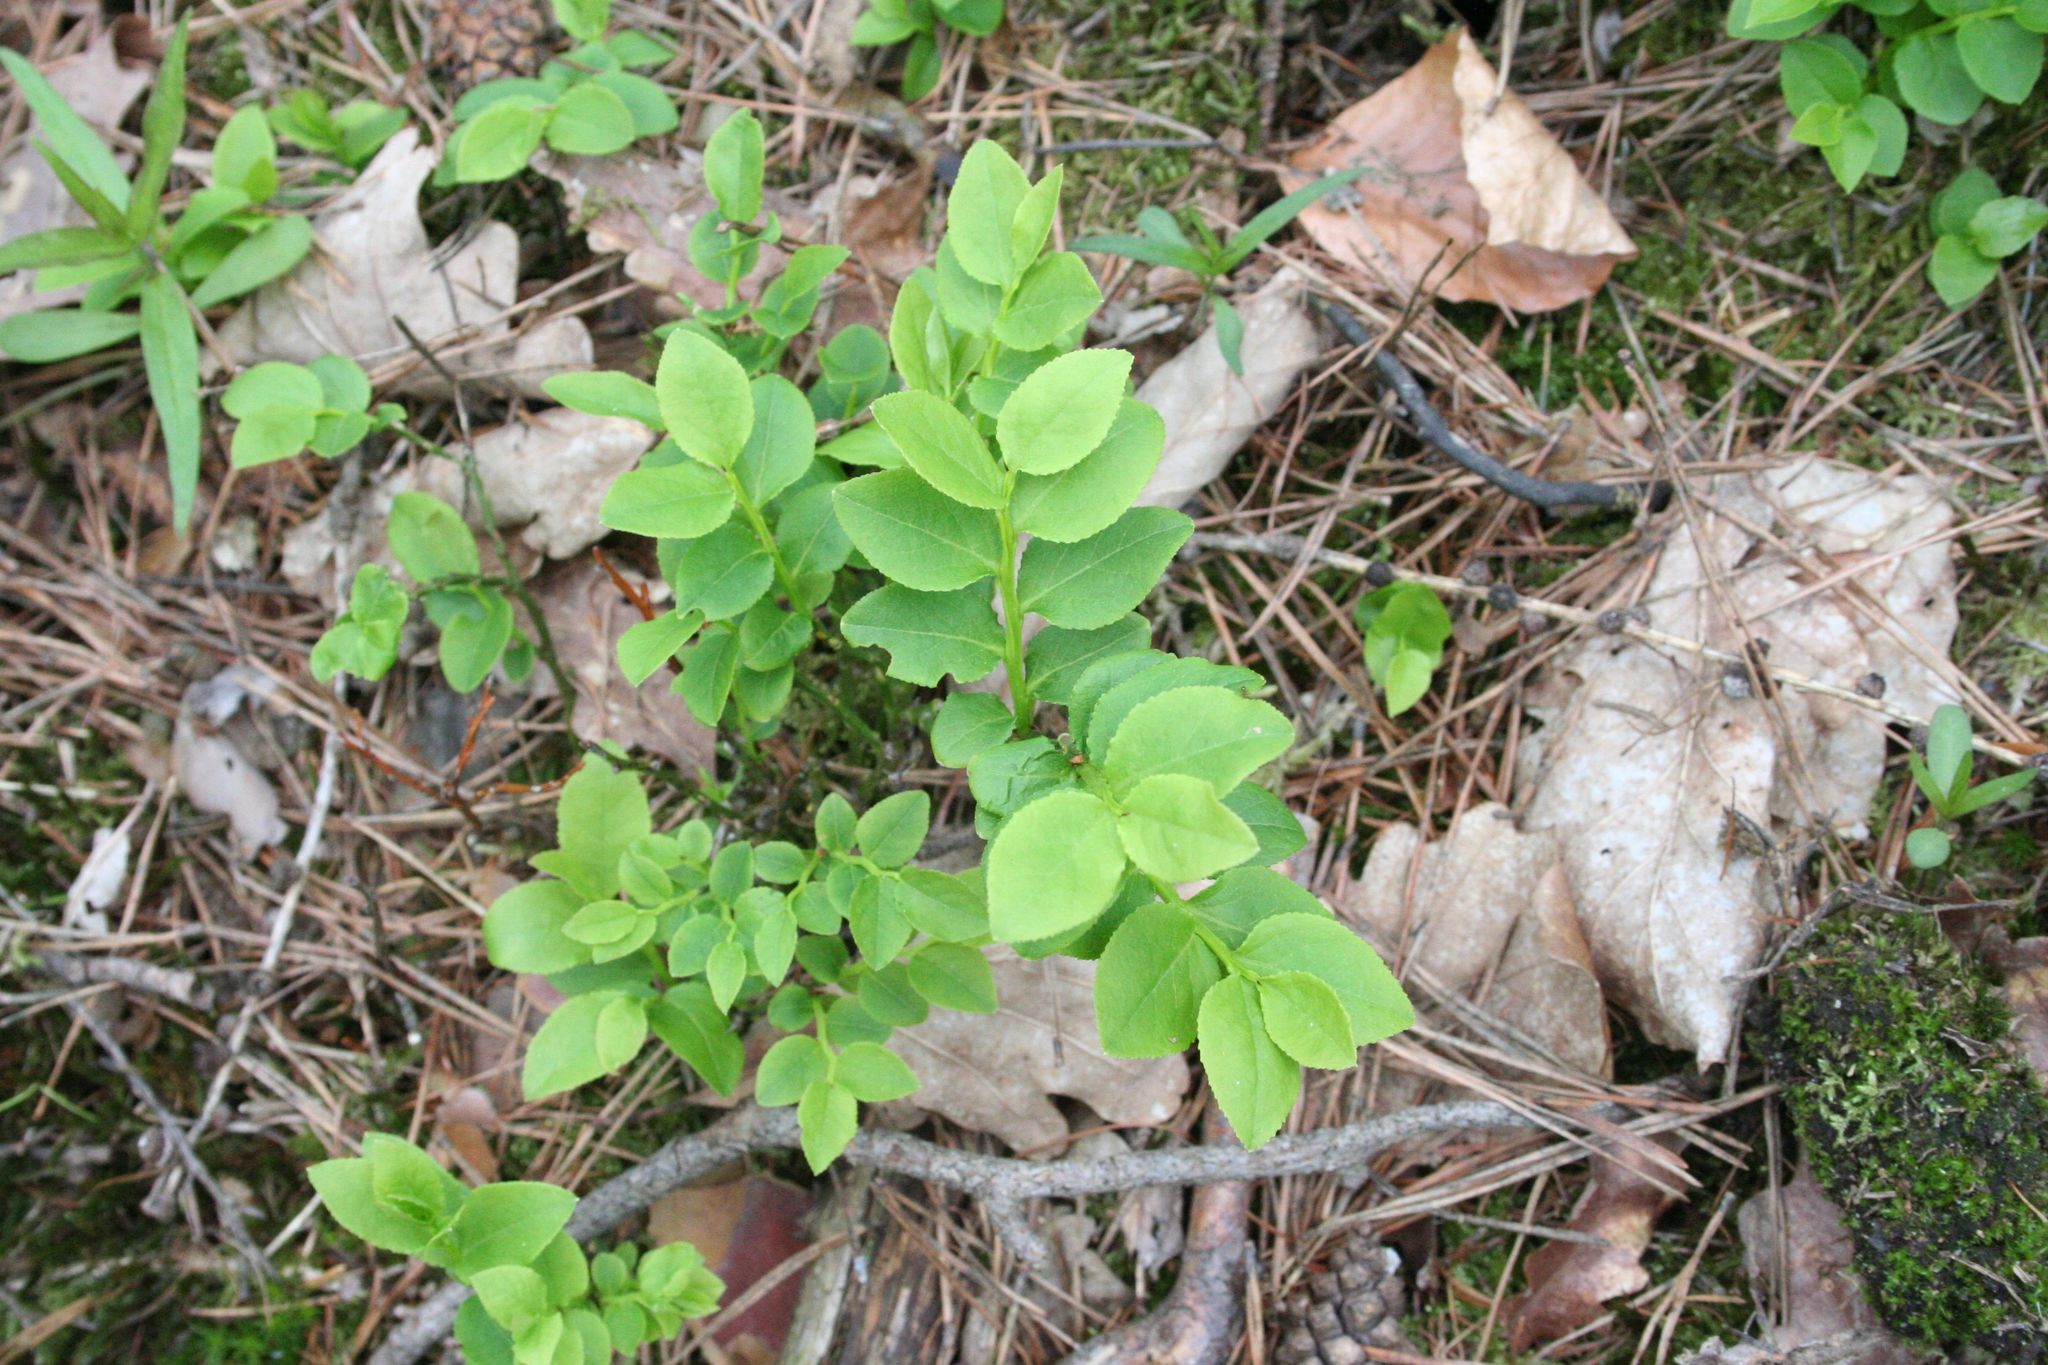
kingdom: Plantae
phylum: Tracheophyta
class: Magnoliopsida
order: Ericales
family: Ericaceae
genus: Vaccinium
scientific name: Vaccinium myrtillus
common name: Bilberry
